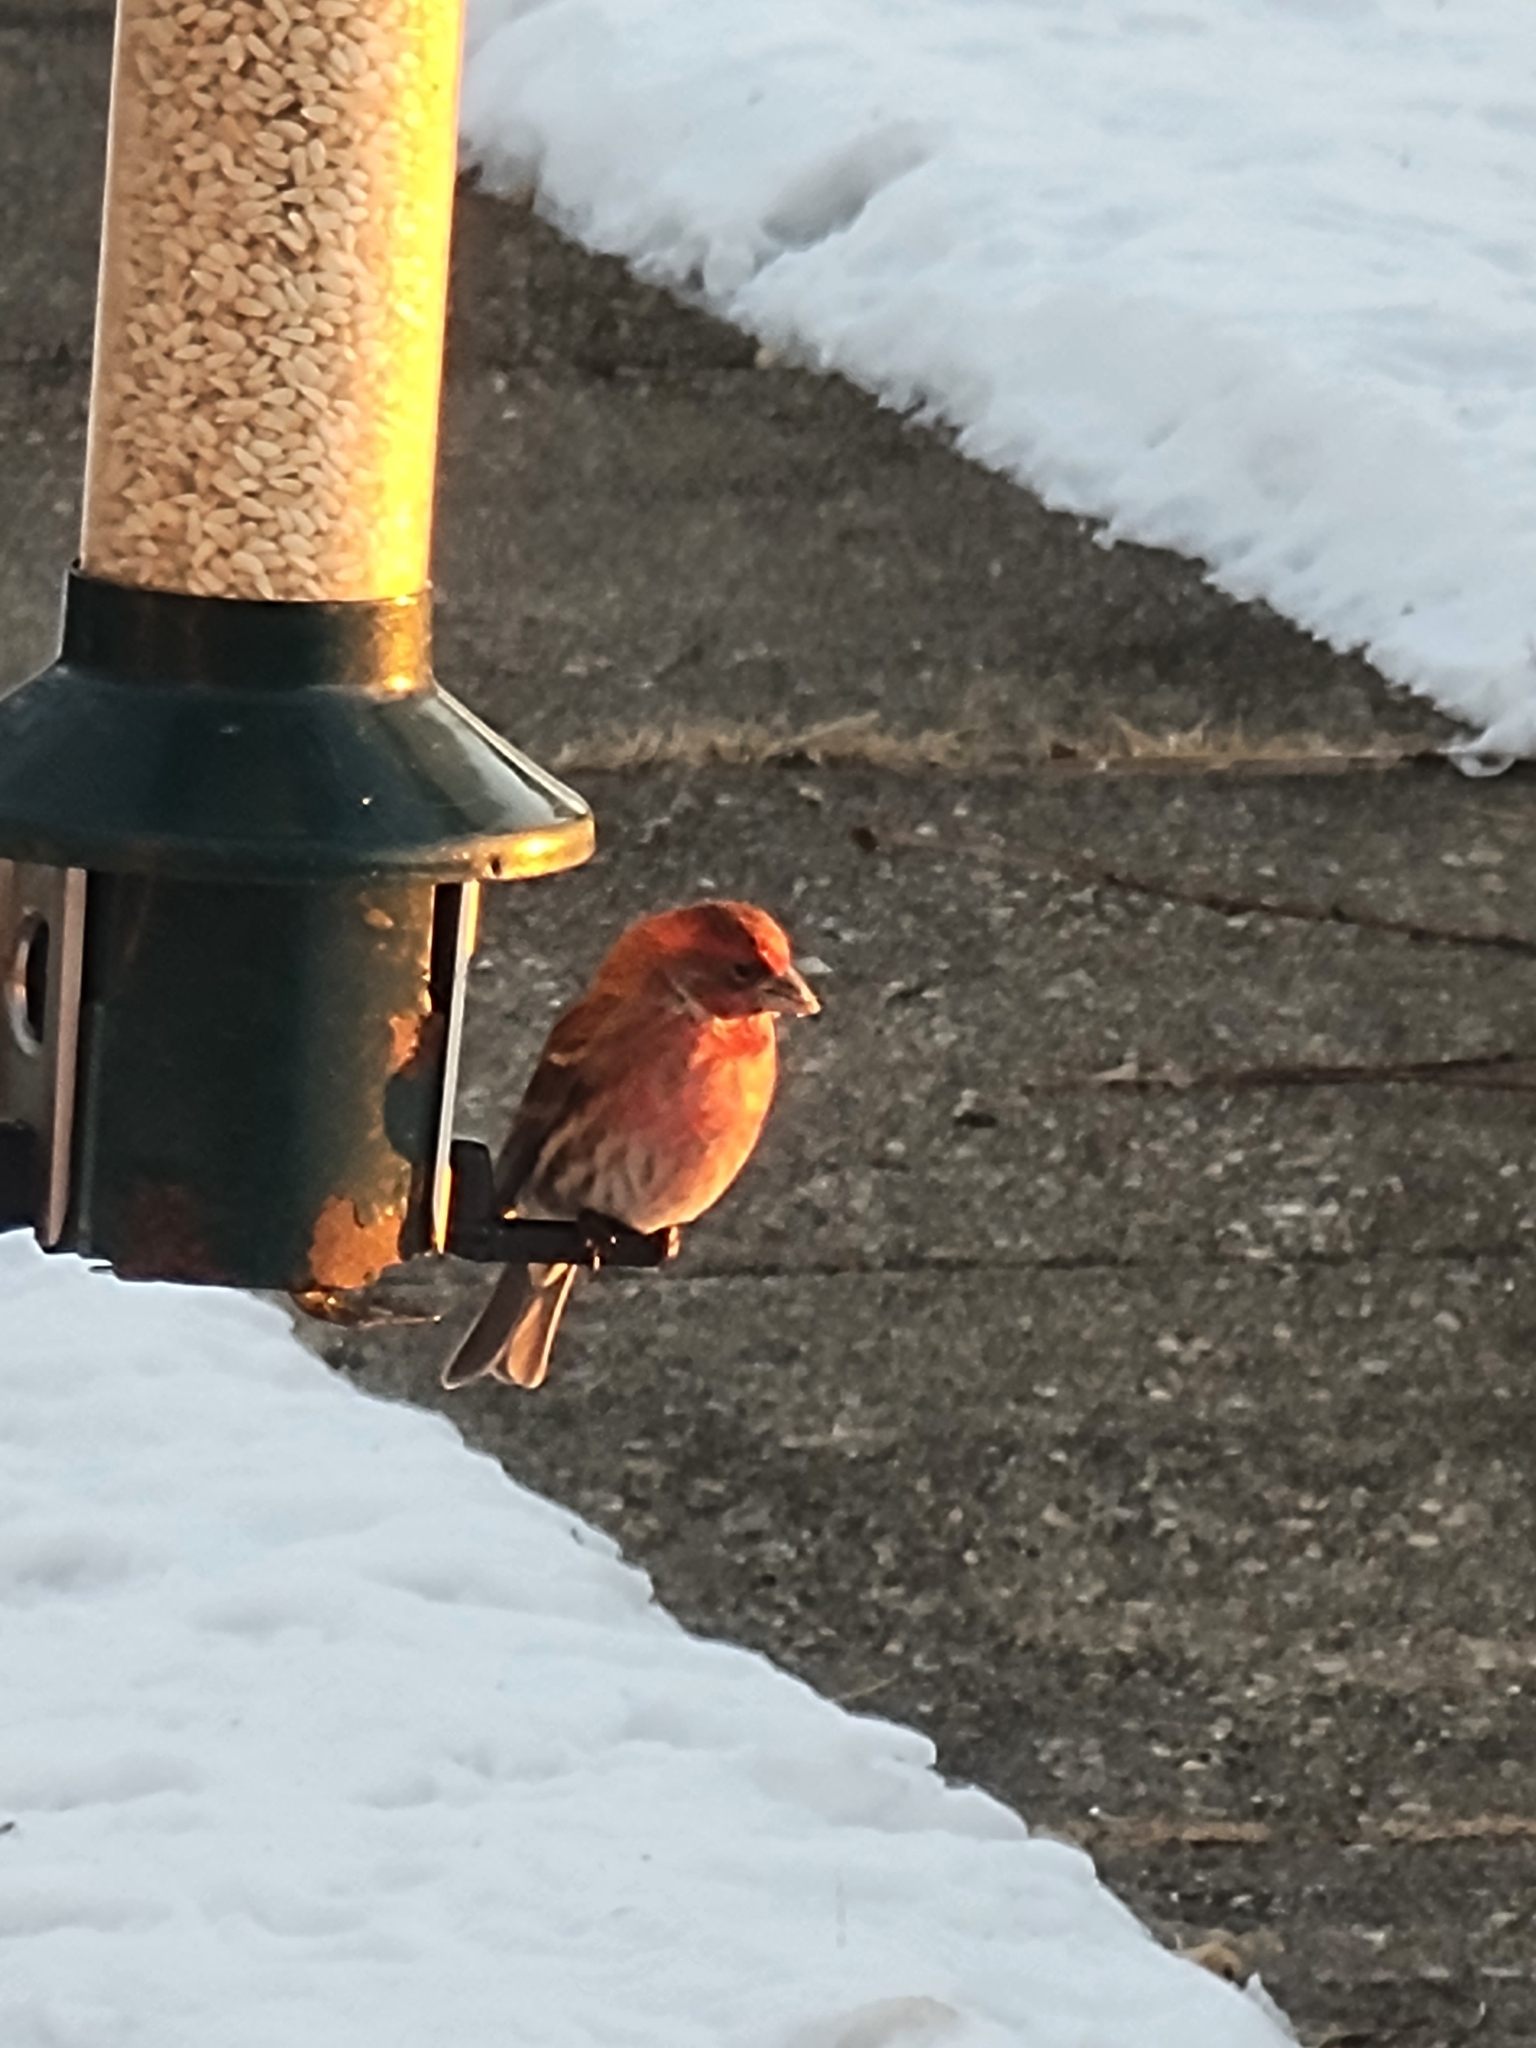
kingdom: Animalia
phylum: Chordata
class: Aves
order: Passeriformes
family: Fringillidae
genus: Haemorhous
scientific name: Haemorhous mexicanus
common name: House finch
